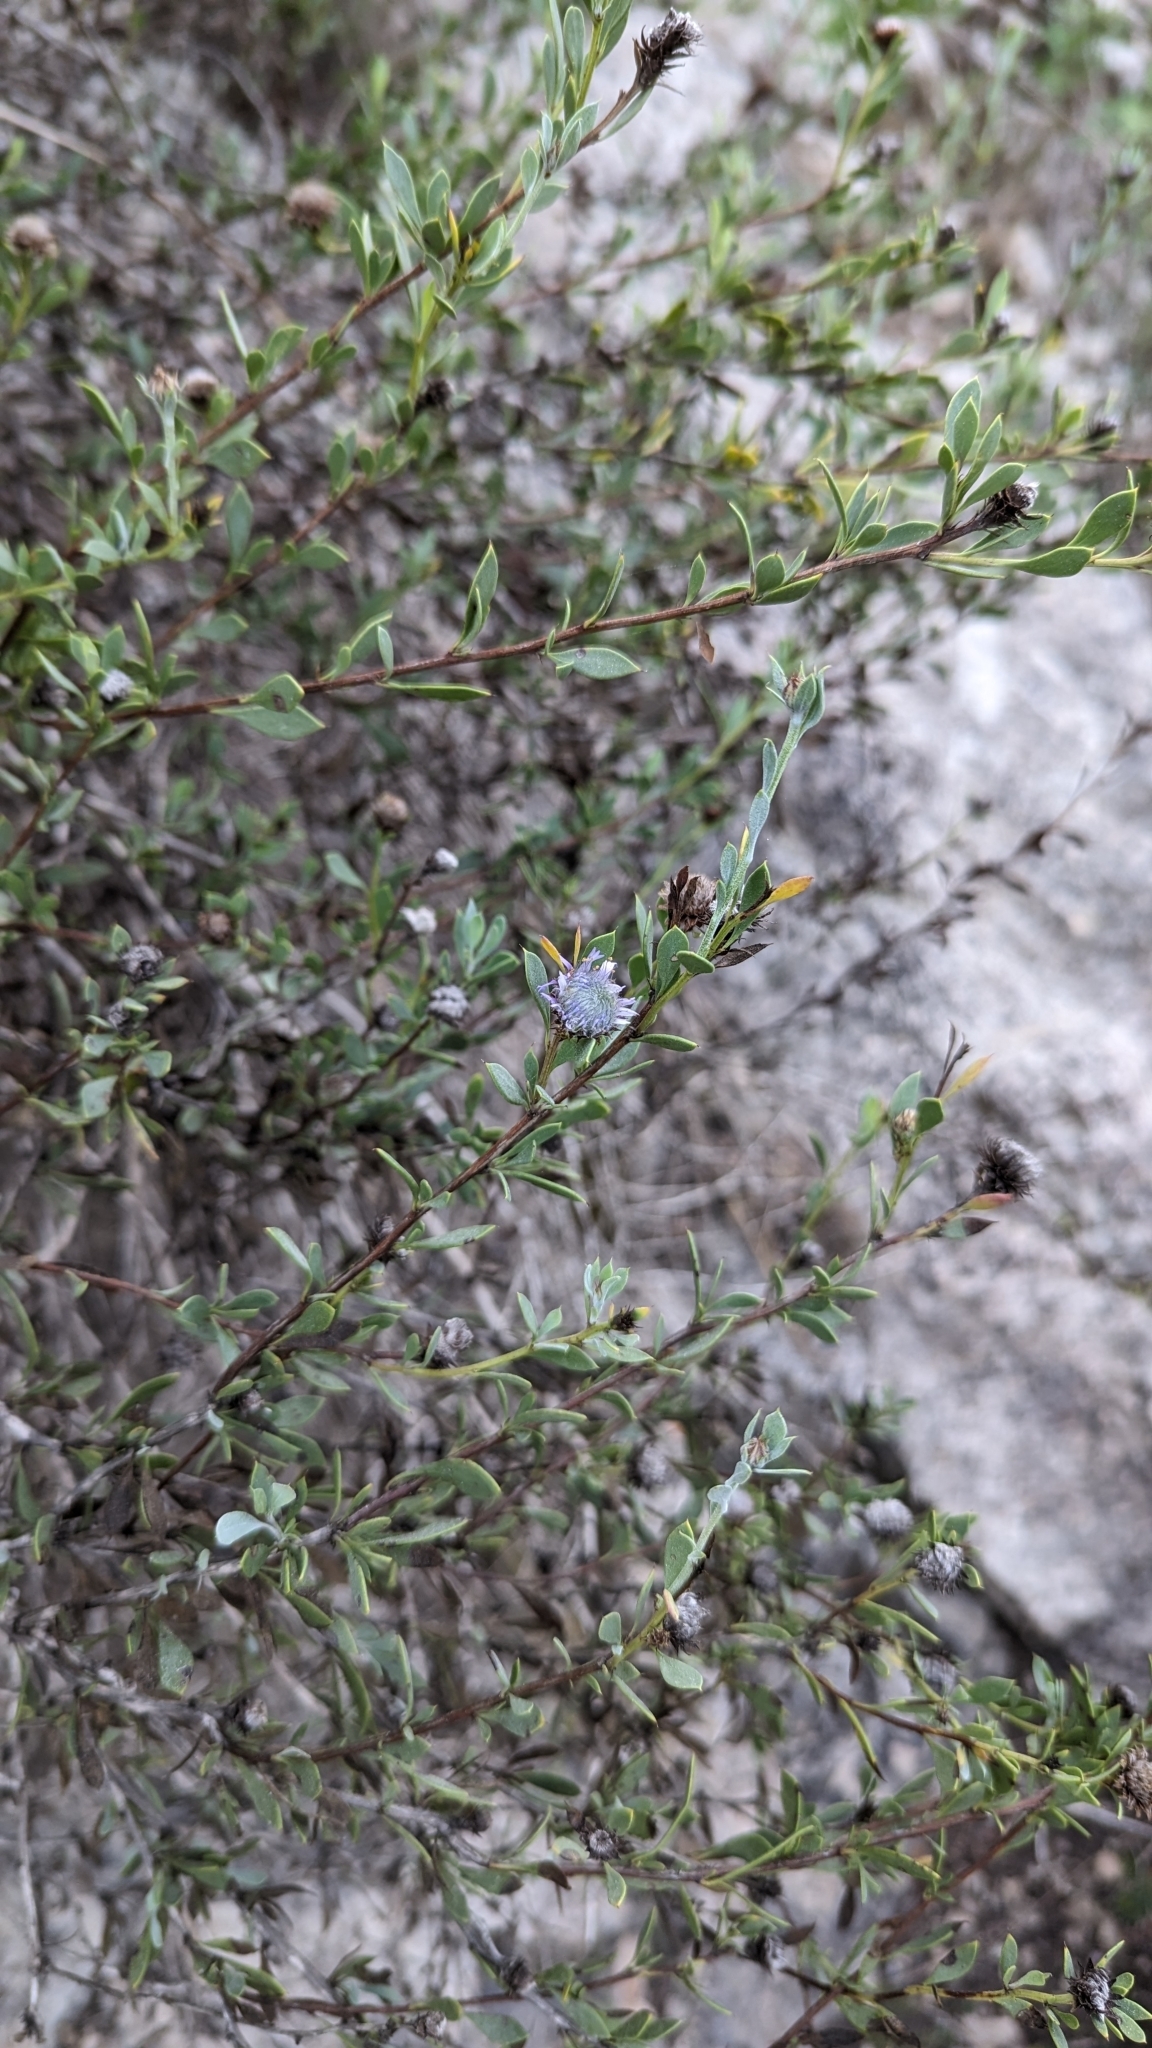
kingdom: Plantae
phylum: Tracheophyta
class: Magnoliopsida
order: Lamiales
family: Plantaginaceae
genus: Globularia
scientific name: Globularia alypum
